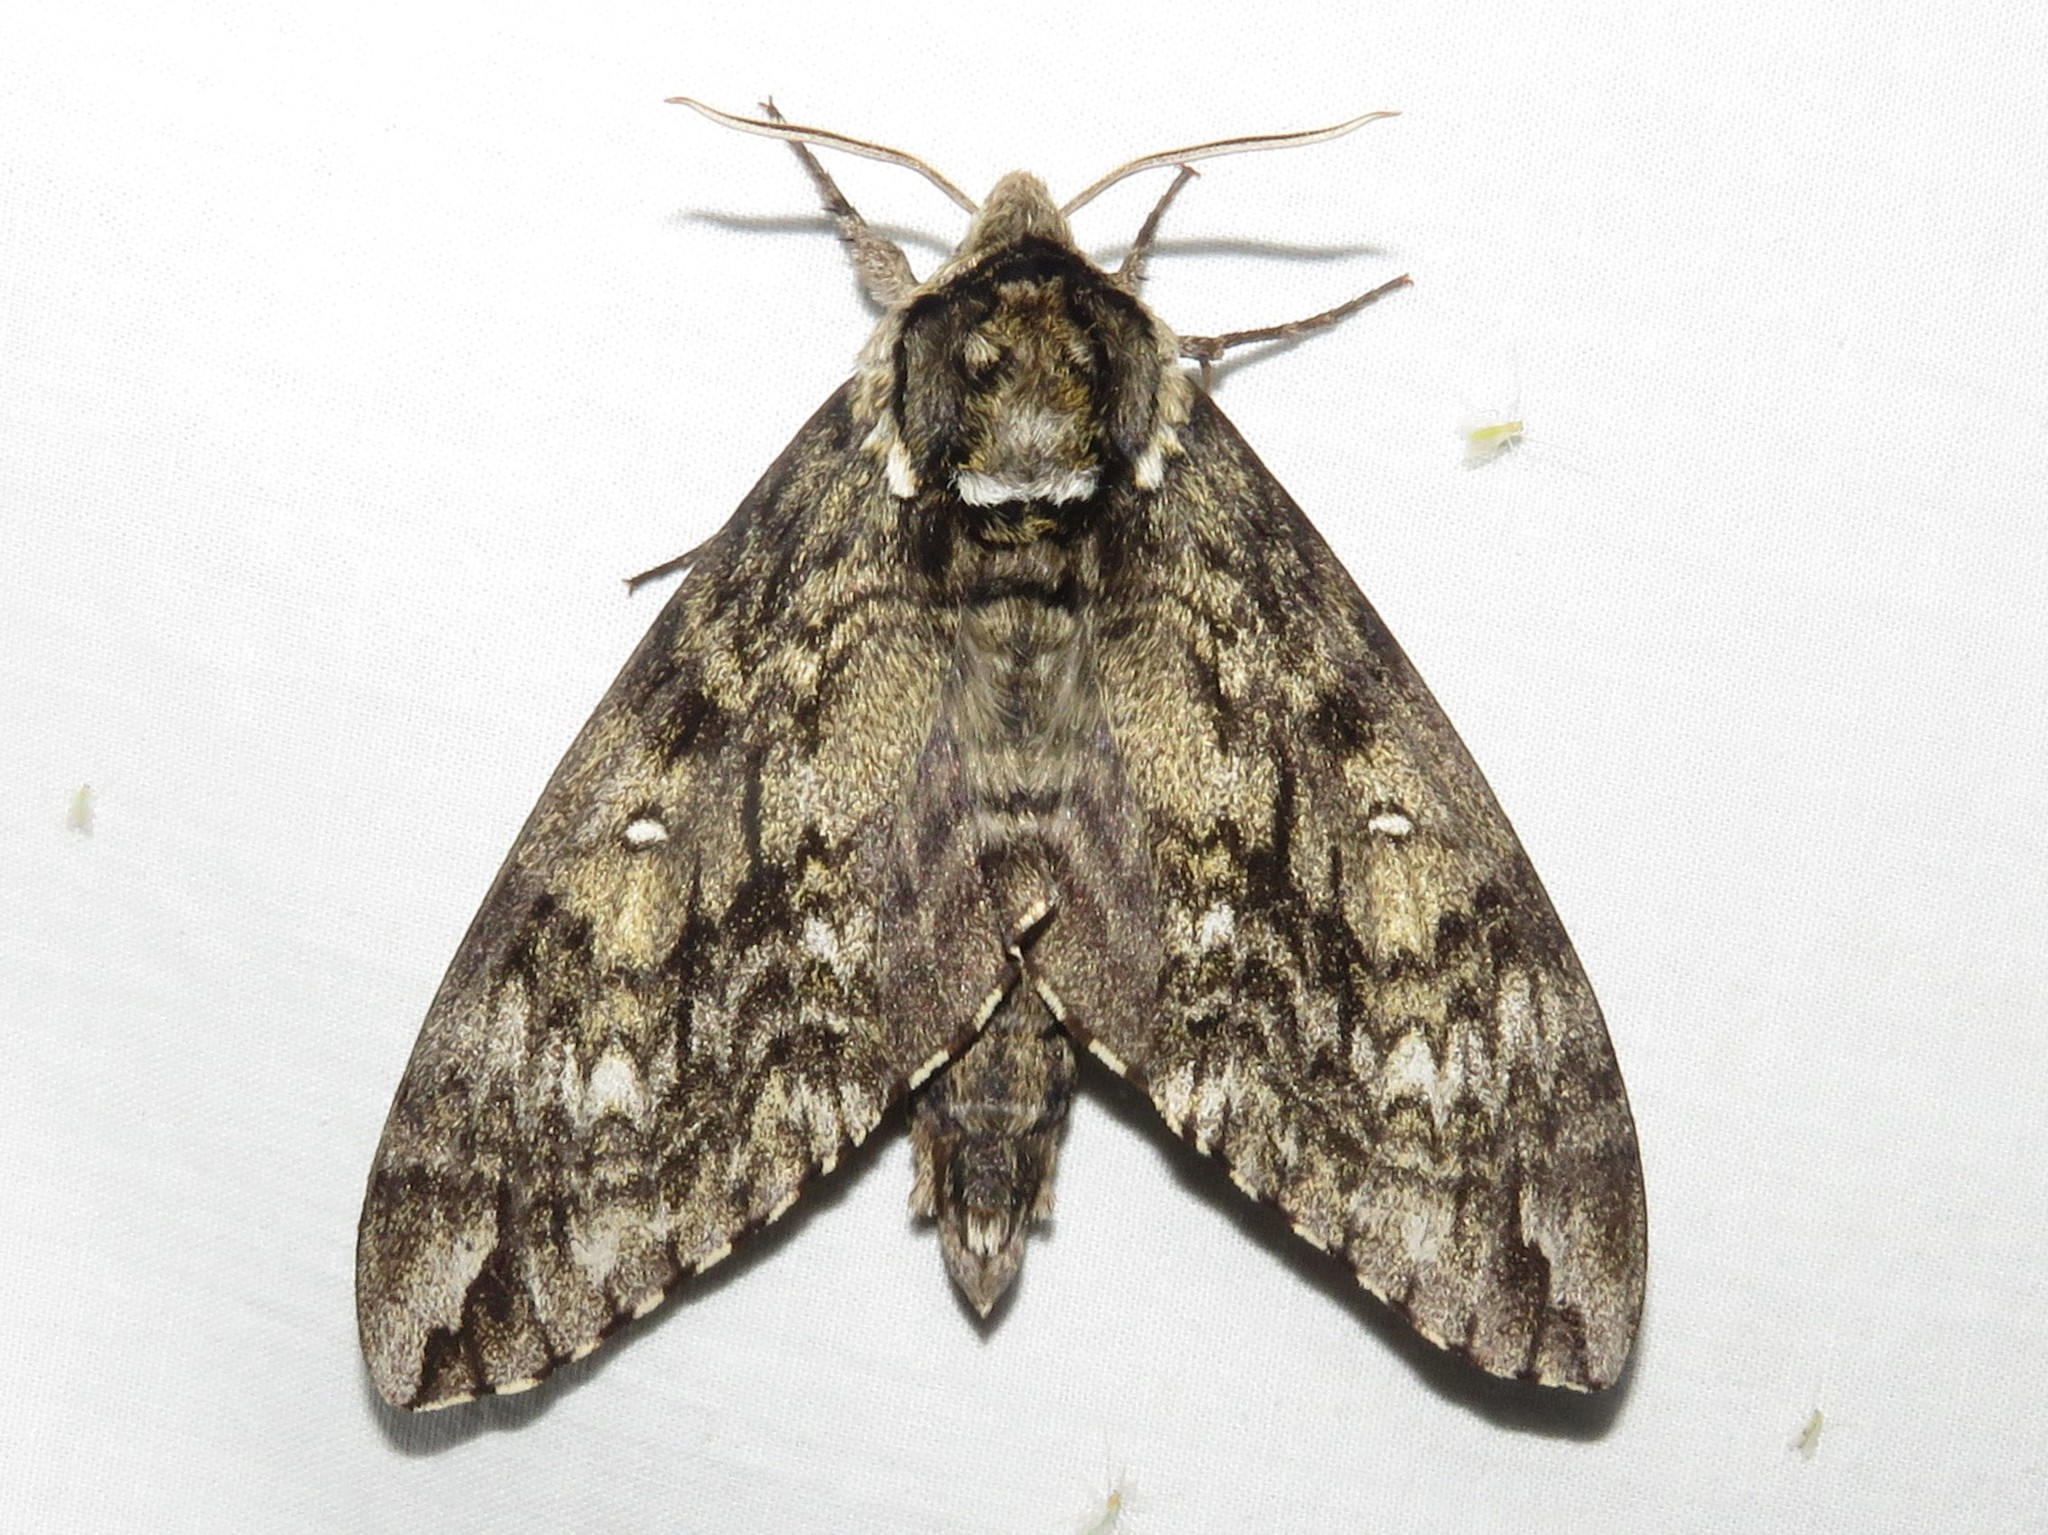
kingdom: Animalia
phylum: Arthropoda
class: Insecta
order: Lepidoptera
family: Sphingidae
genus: Ceratomia
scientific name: Ceratomia undulosa
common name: Waved sphinx
